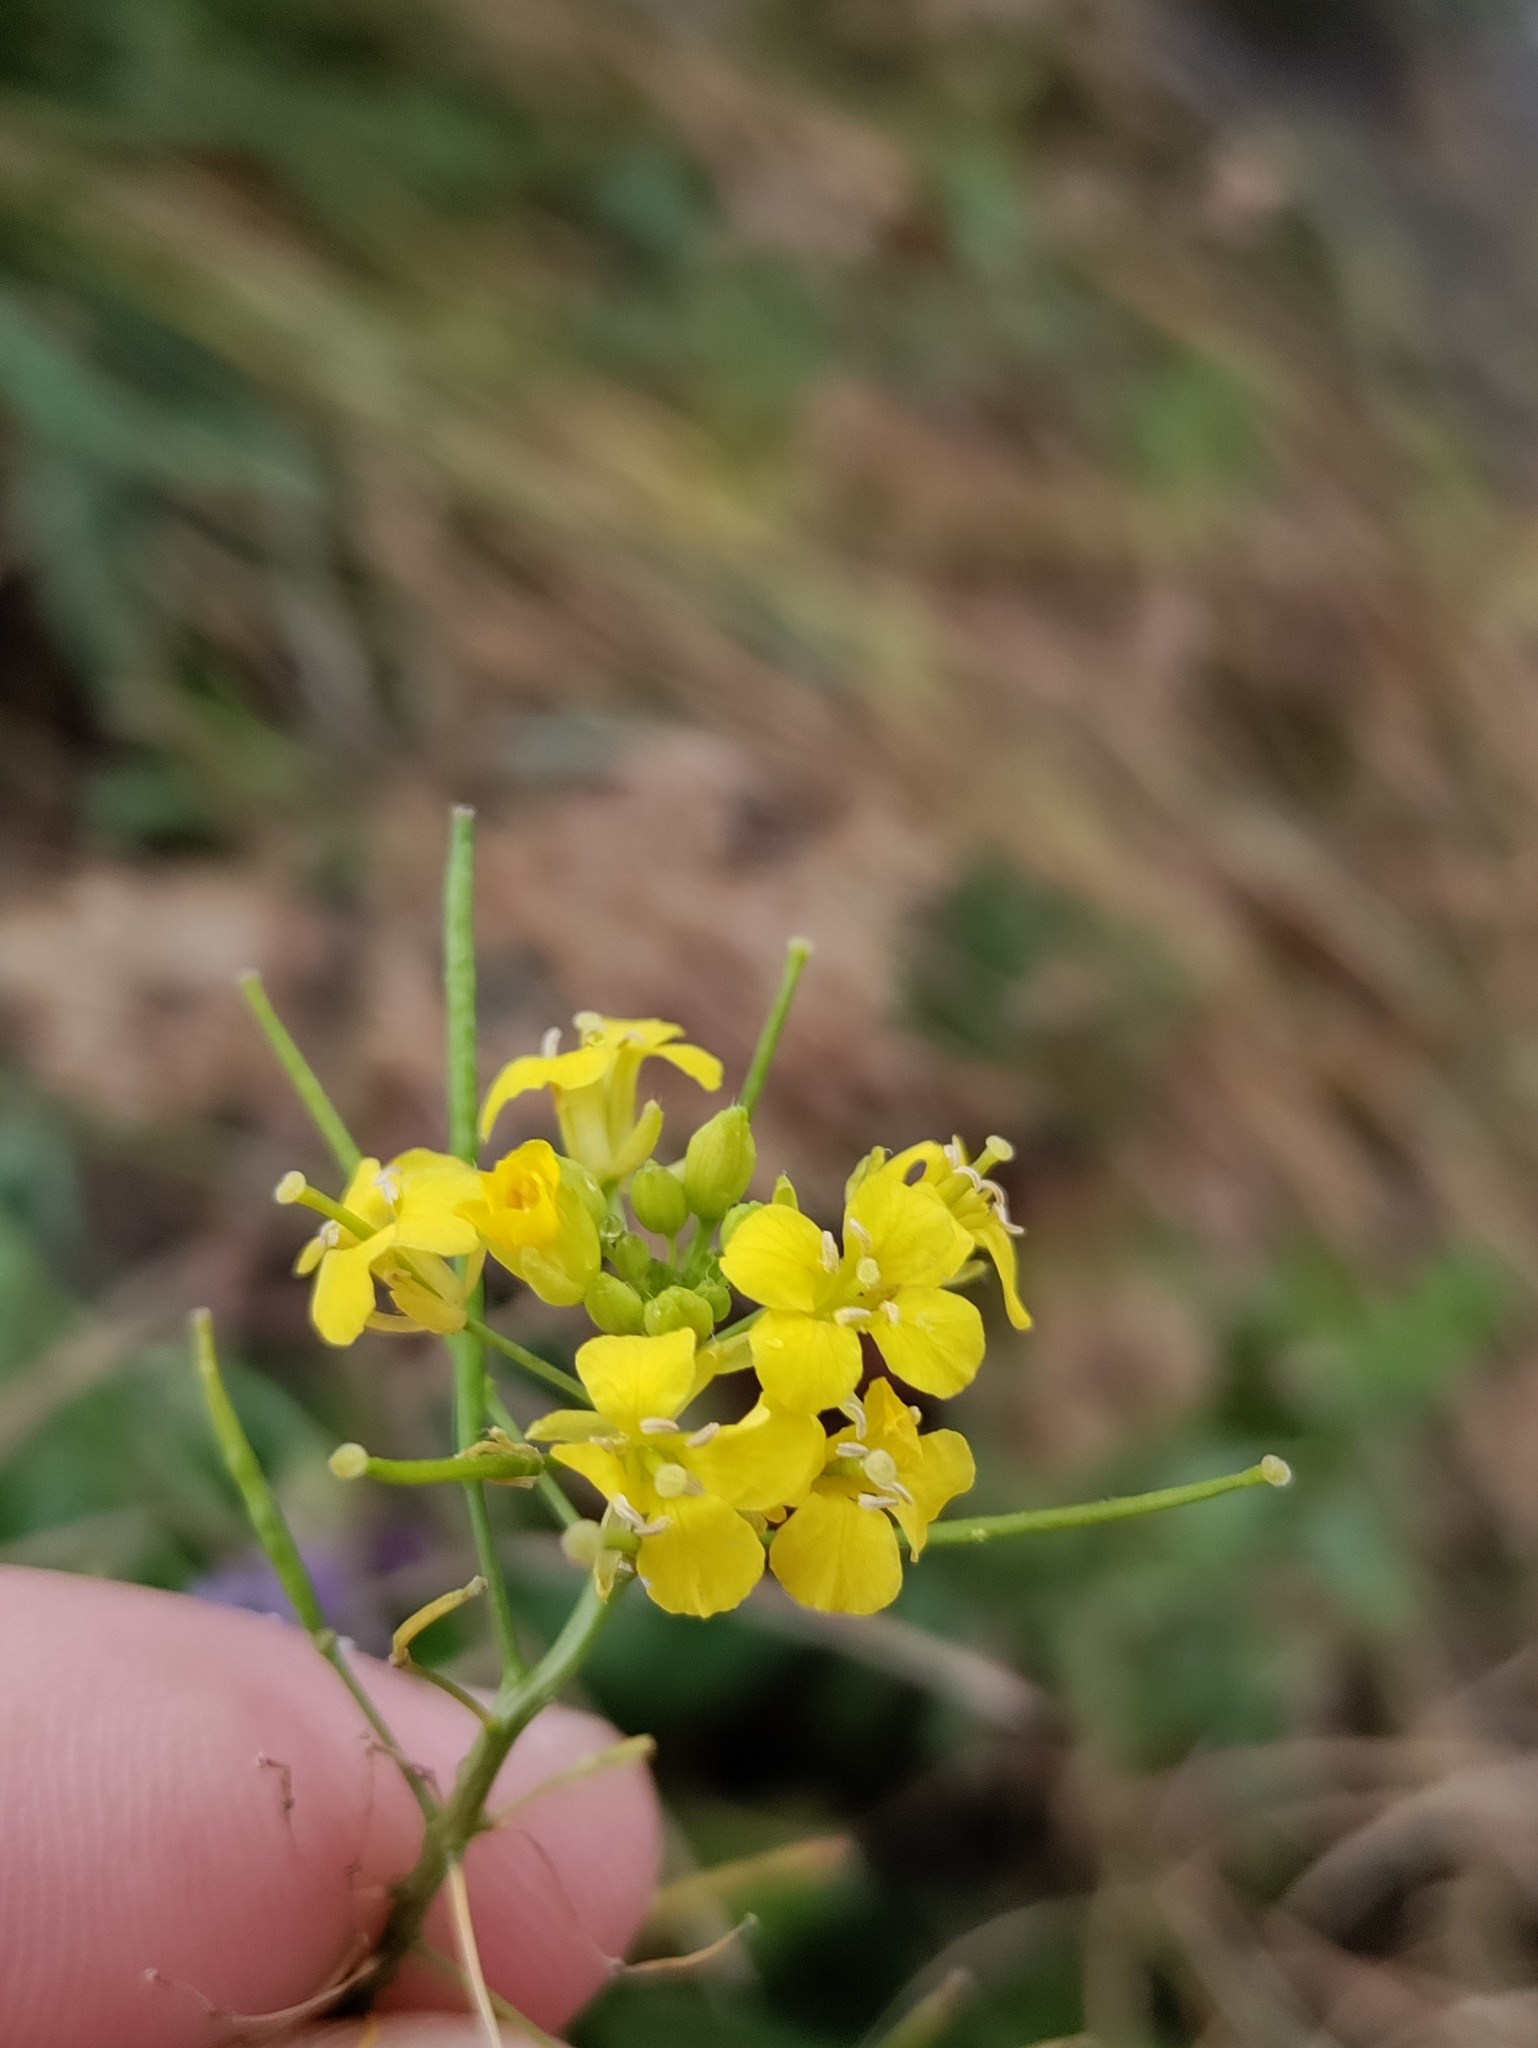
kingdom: Plantae
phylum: Tracheophyta
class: Magnoliopsida
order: Brassicales
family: Brassicaceae
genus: Sisymbrium
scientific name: Sisymbrium loeselii
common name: False london-rocket
